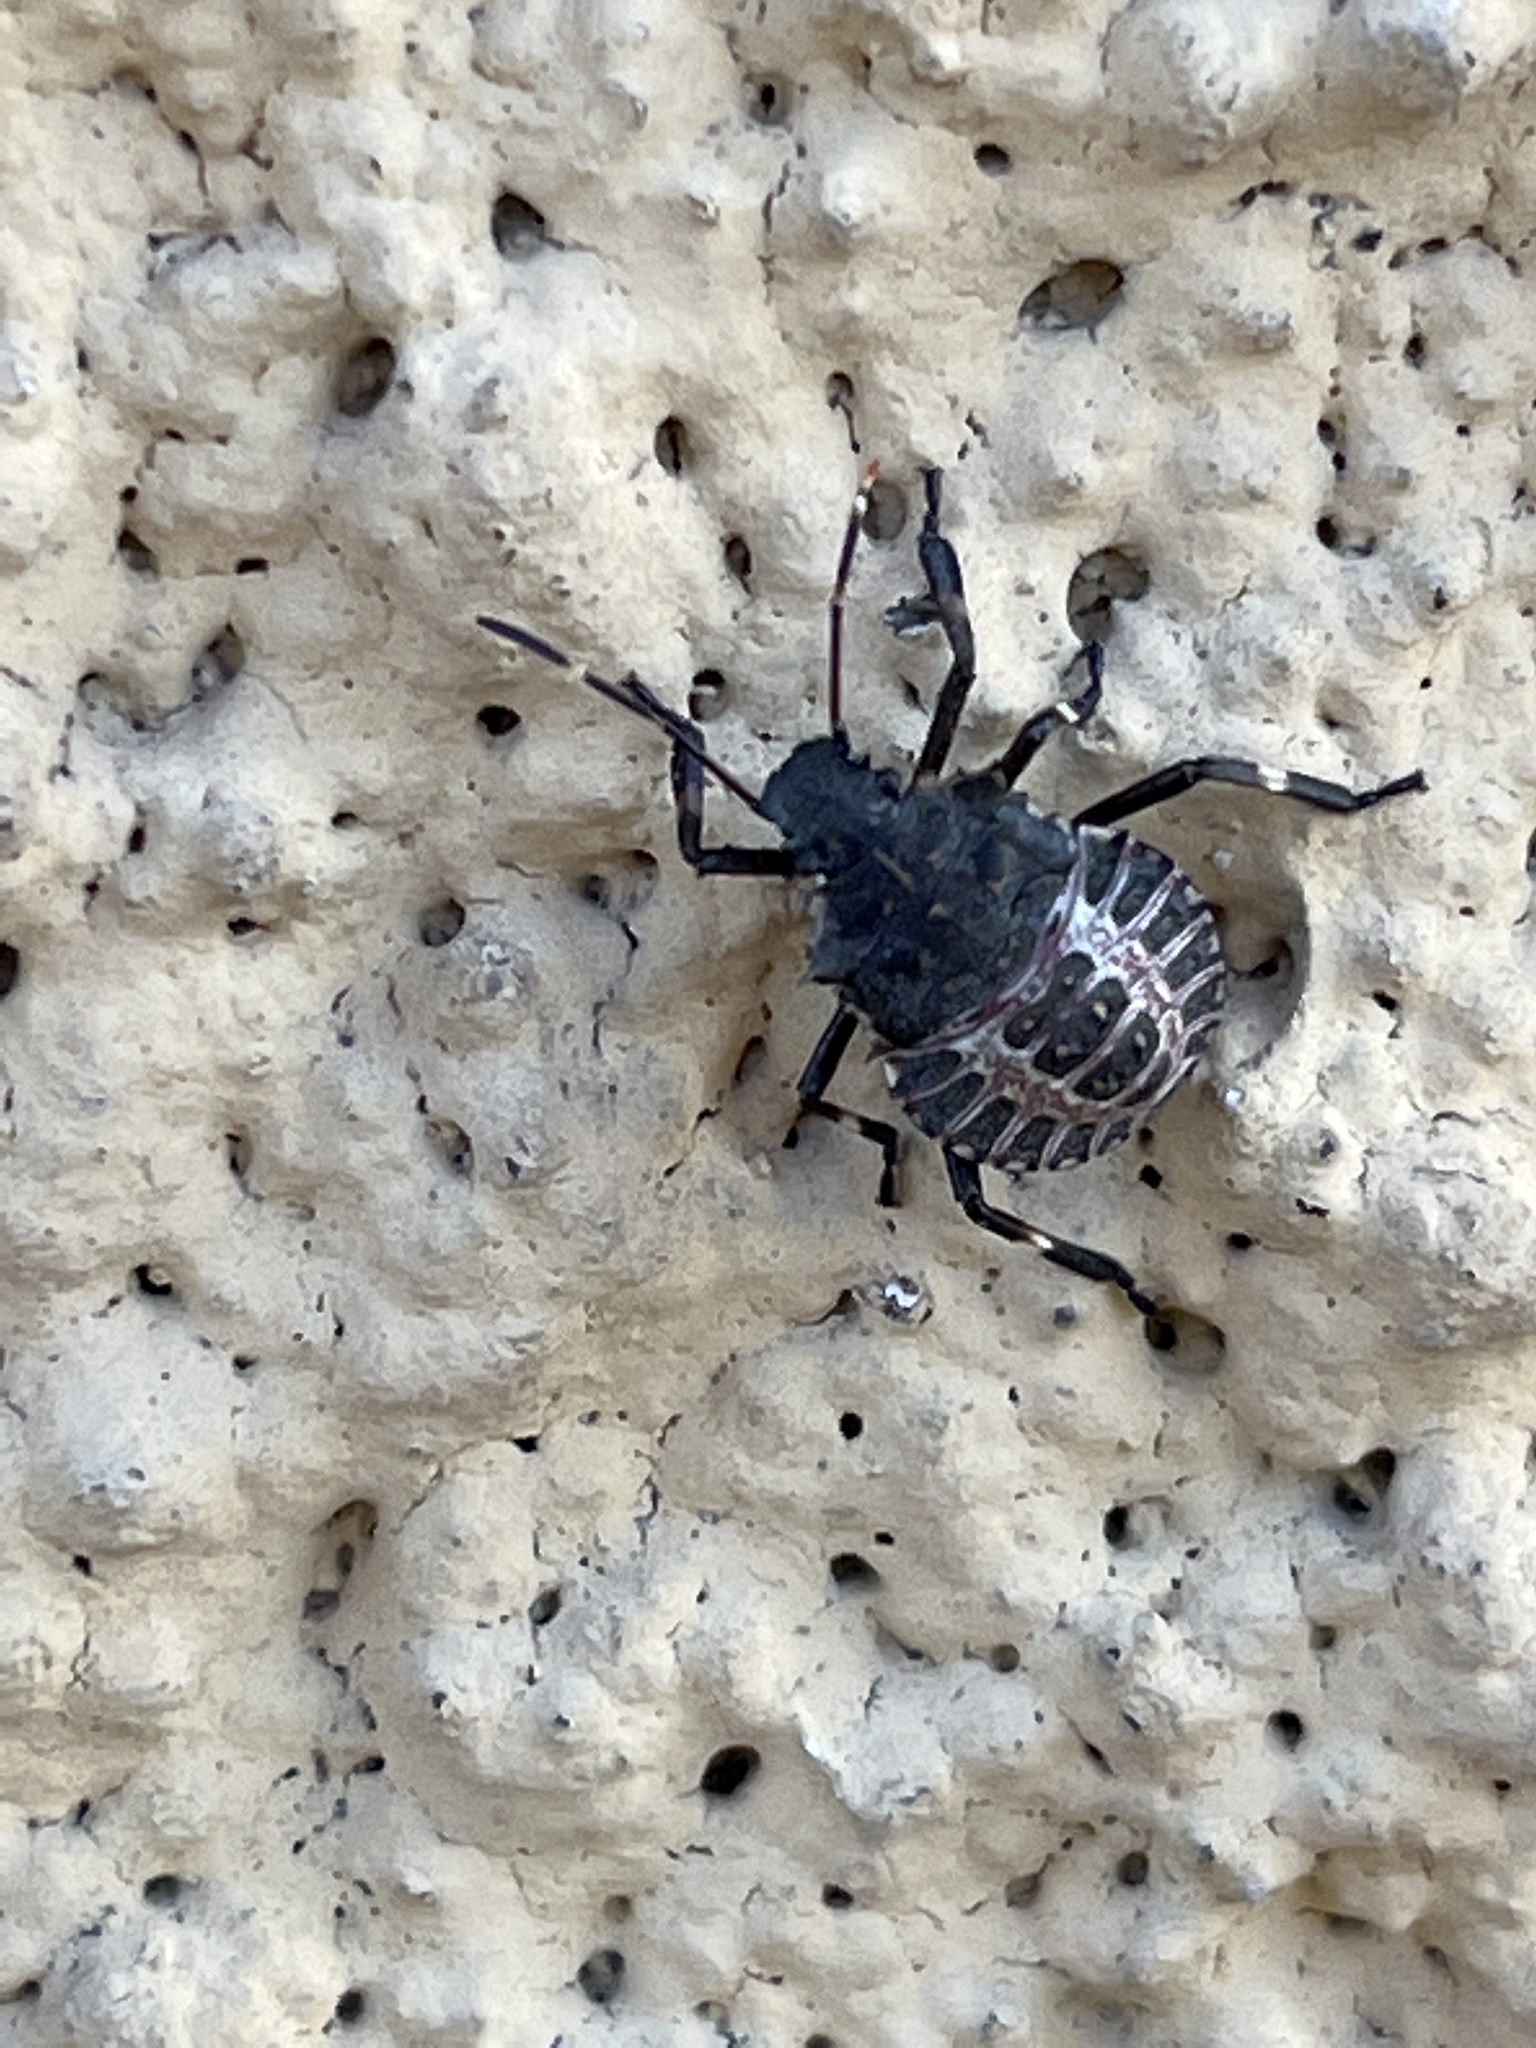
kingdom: Animalia
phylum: Arthropoda
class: Insecta
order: Hemiptera
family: Pentatomidae
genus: Halyomorpha
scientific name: Halyomorpha halys
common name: Brown marmorated stink bug
